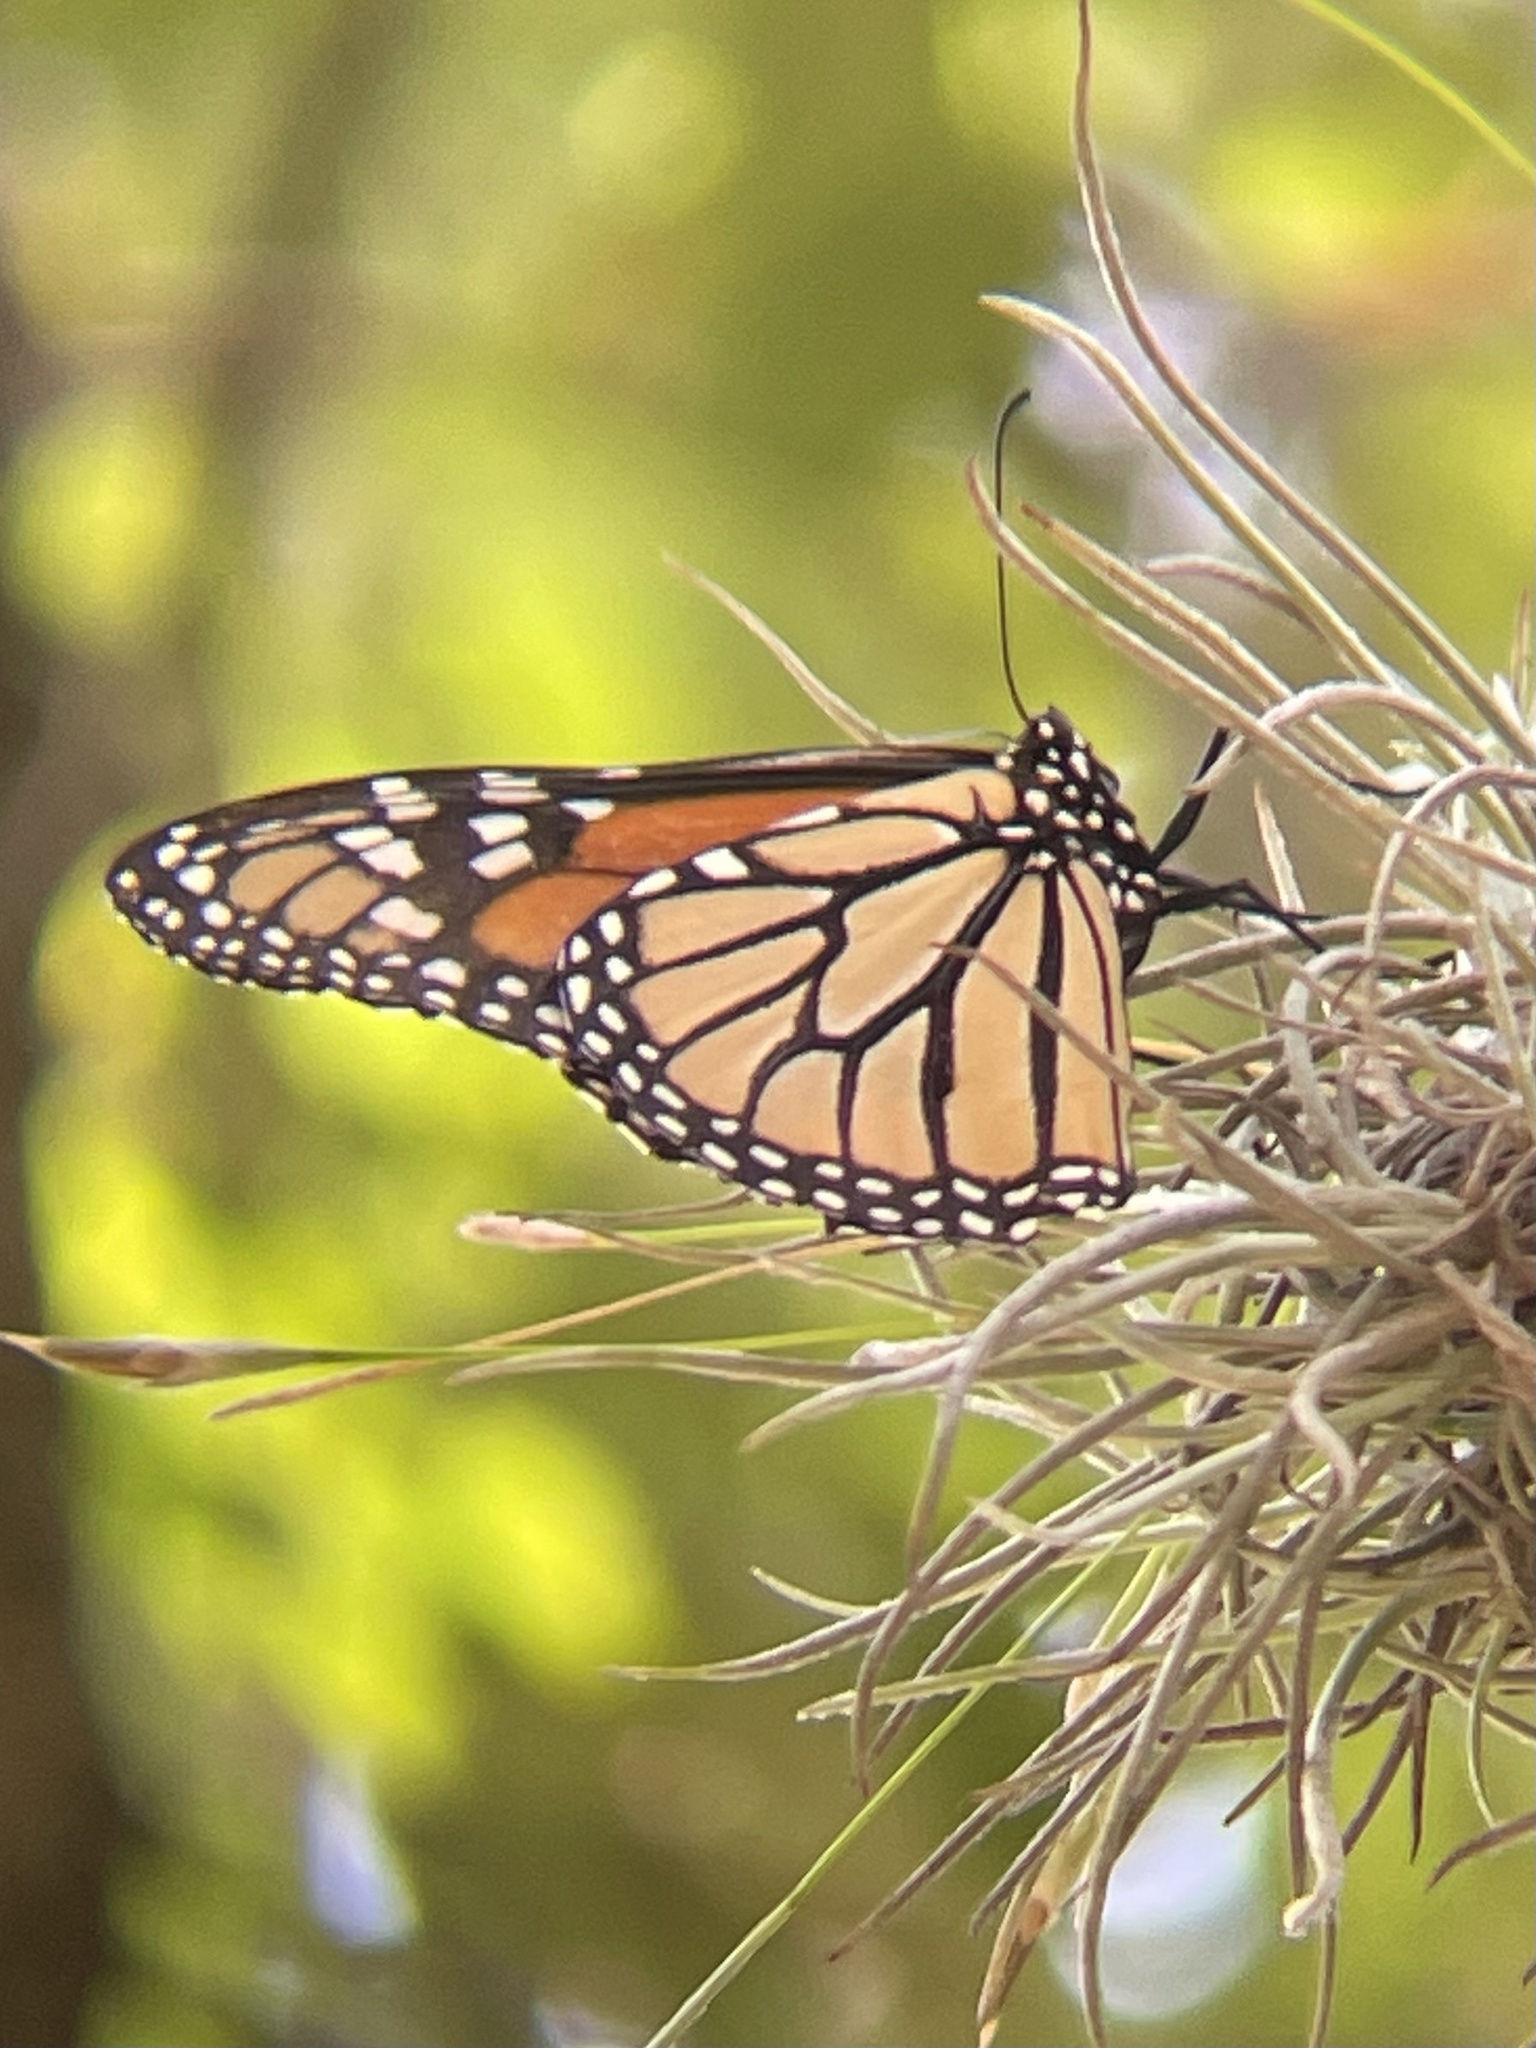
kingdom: Animalia
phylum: Arthropoda
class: Insecta
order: Lepidoptera
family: Nymphalidae
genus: Danaus
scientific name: Danaus plexippus
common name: Monarch
